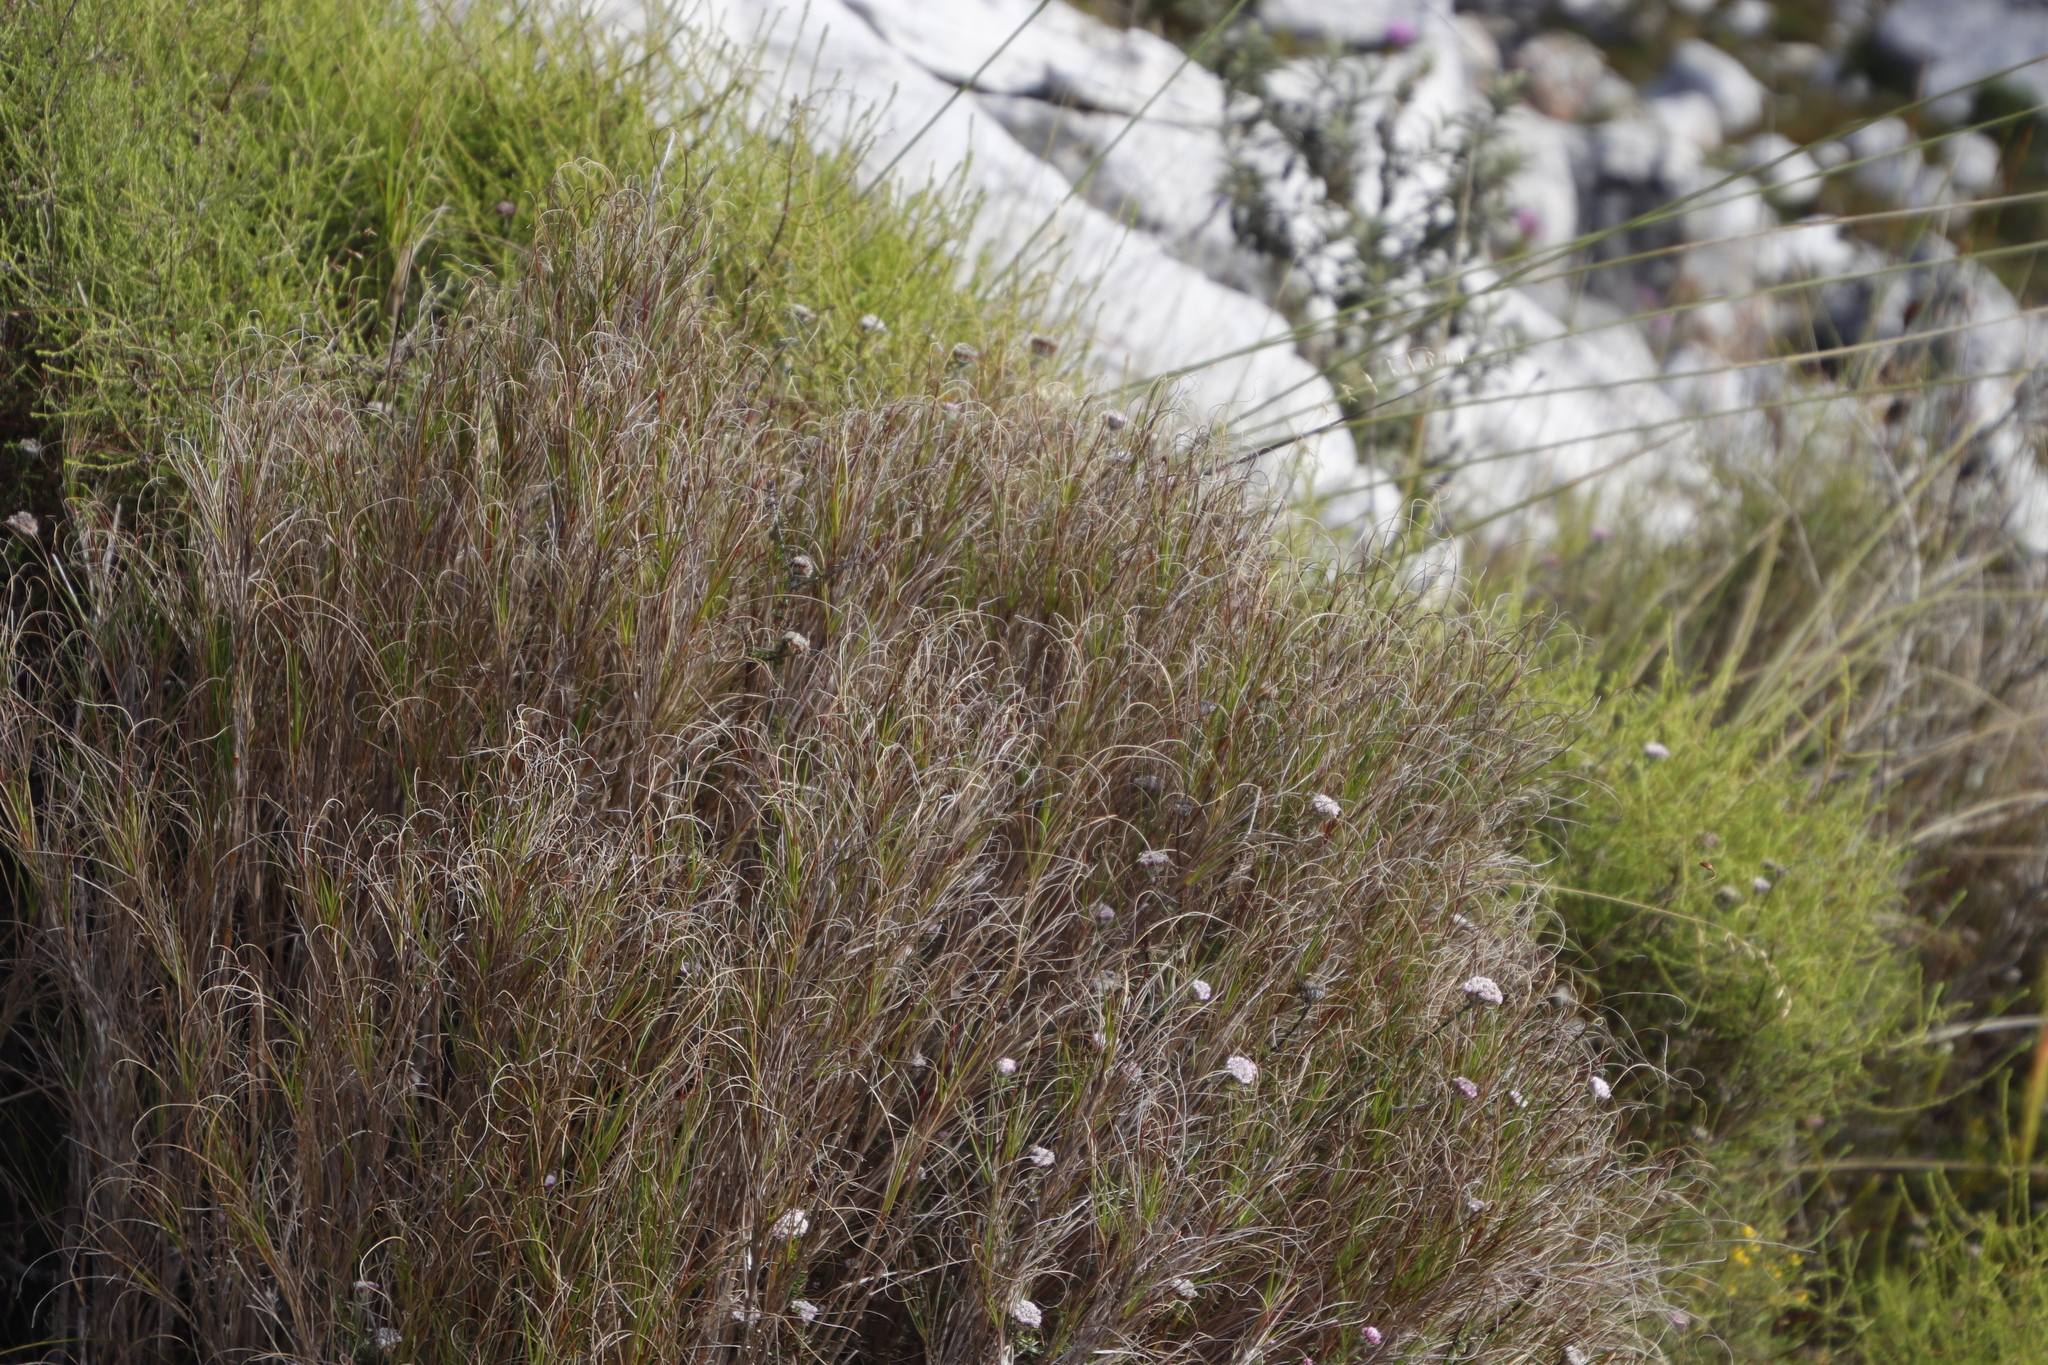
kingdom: Plantae
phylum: Tracheophyta
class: Liliopsida
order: Poales
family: Poaceae
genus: Pseudopentameris
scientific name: Pseudopentameris macrantha
